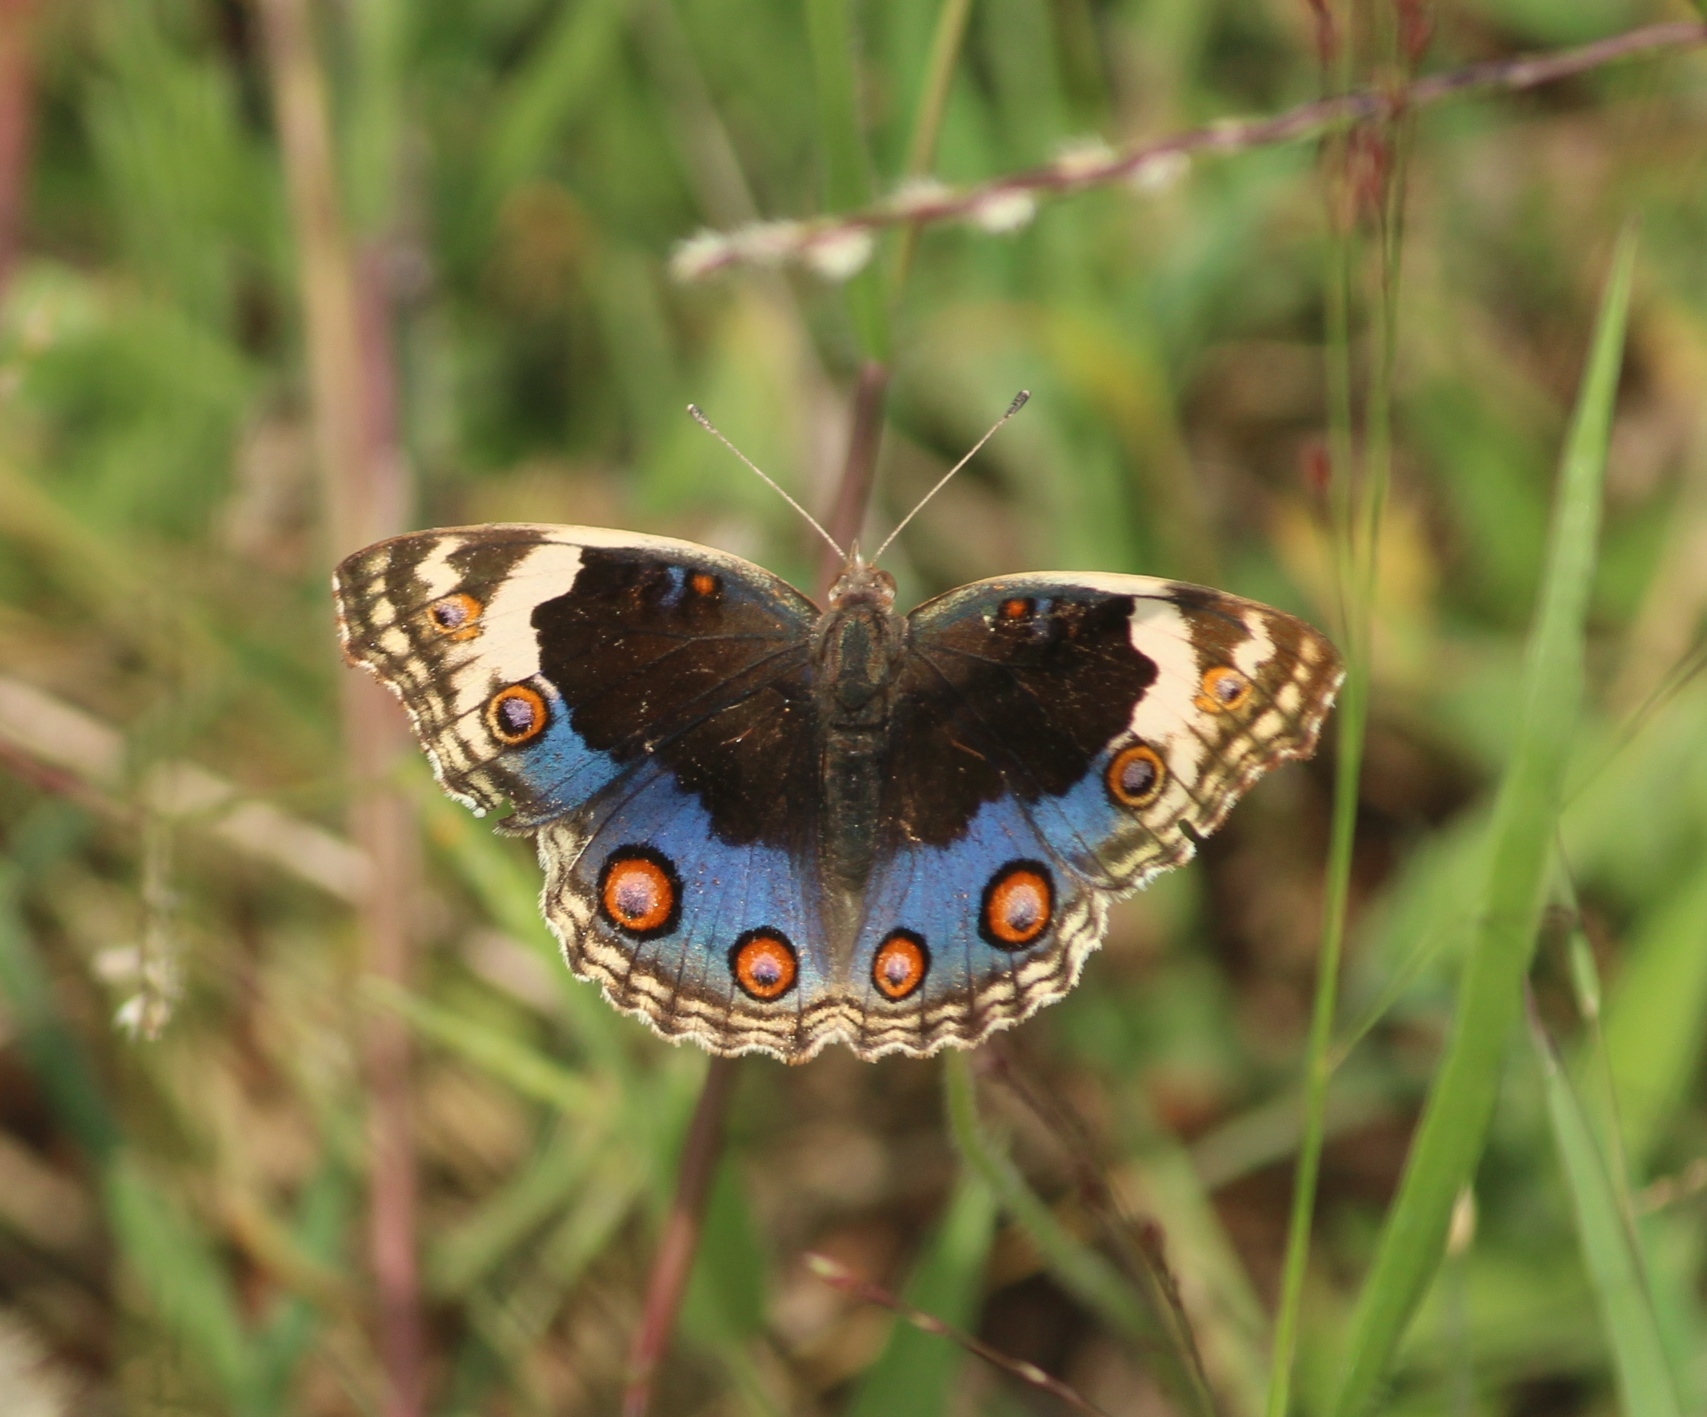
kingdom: Animalia
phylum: Arthropoda
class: Insecta
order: Lepidoptera
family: Nymphalidae
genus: Junonia
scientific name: Junonia orithya
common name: Blue pansy
